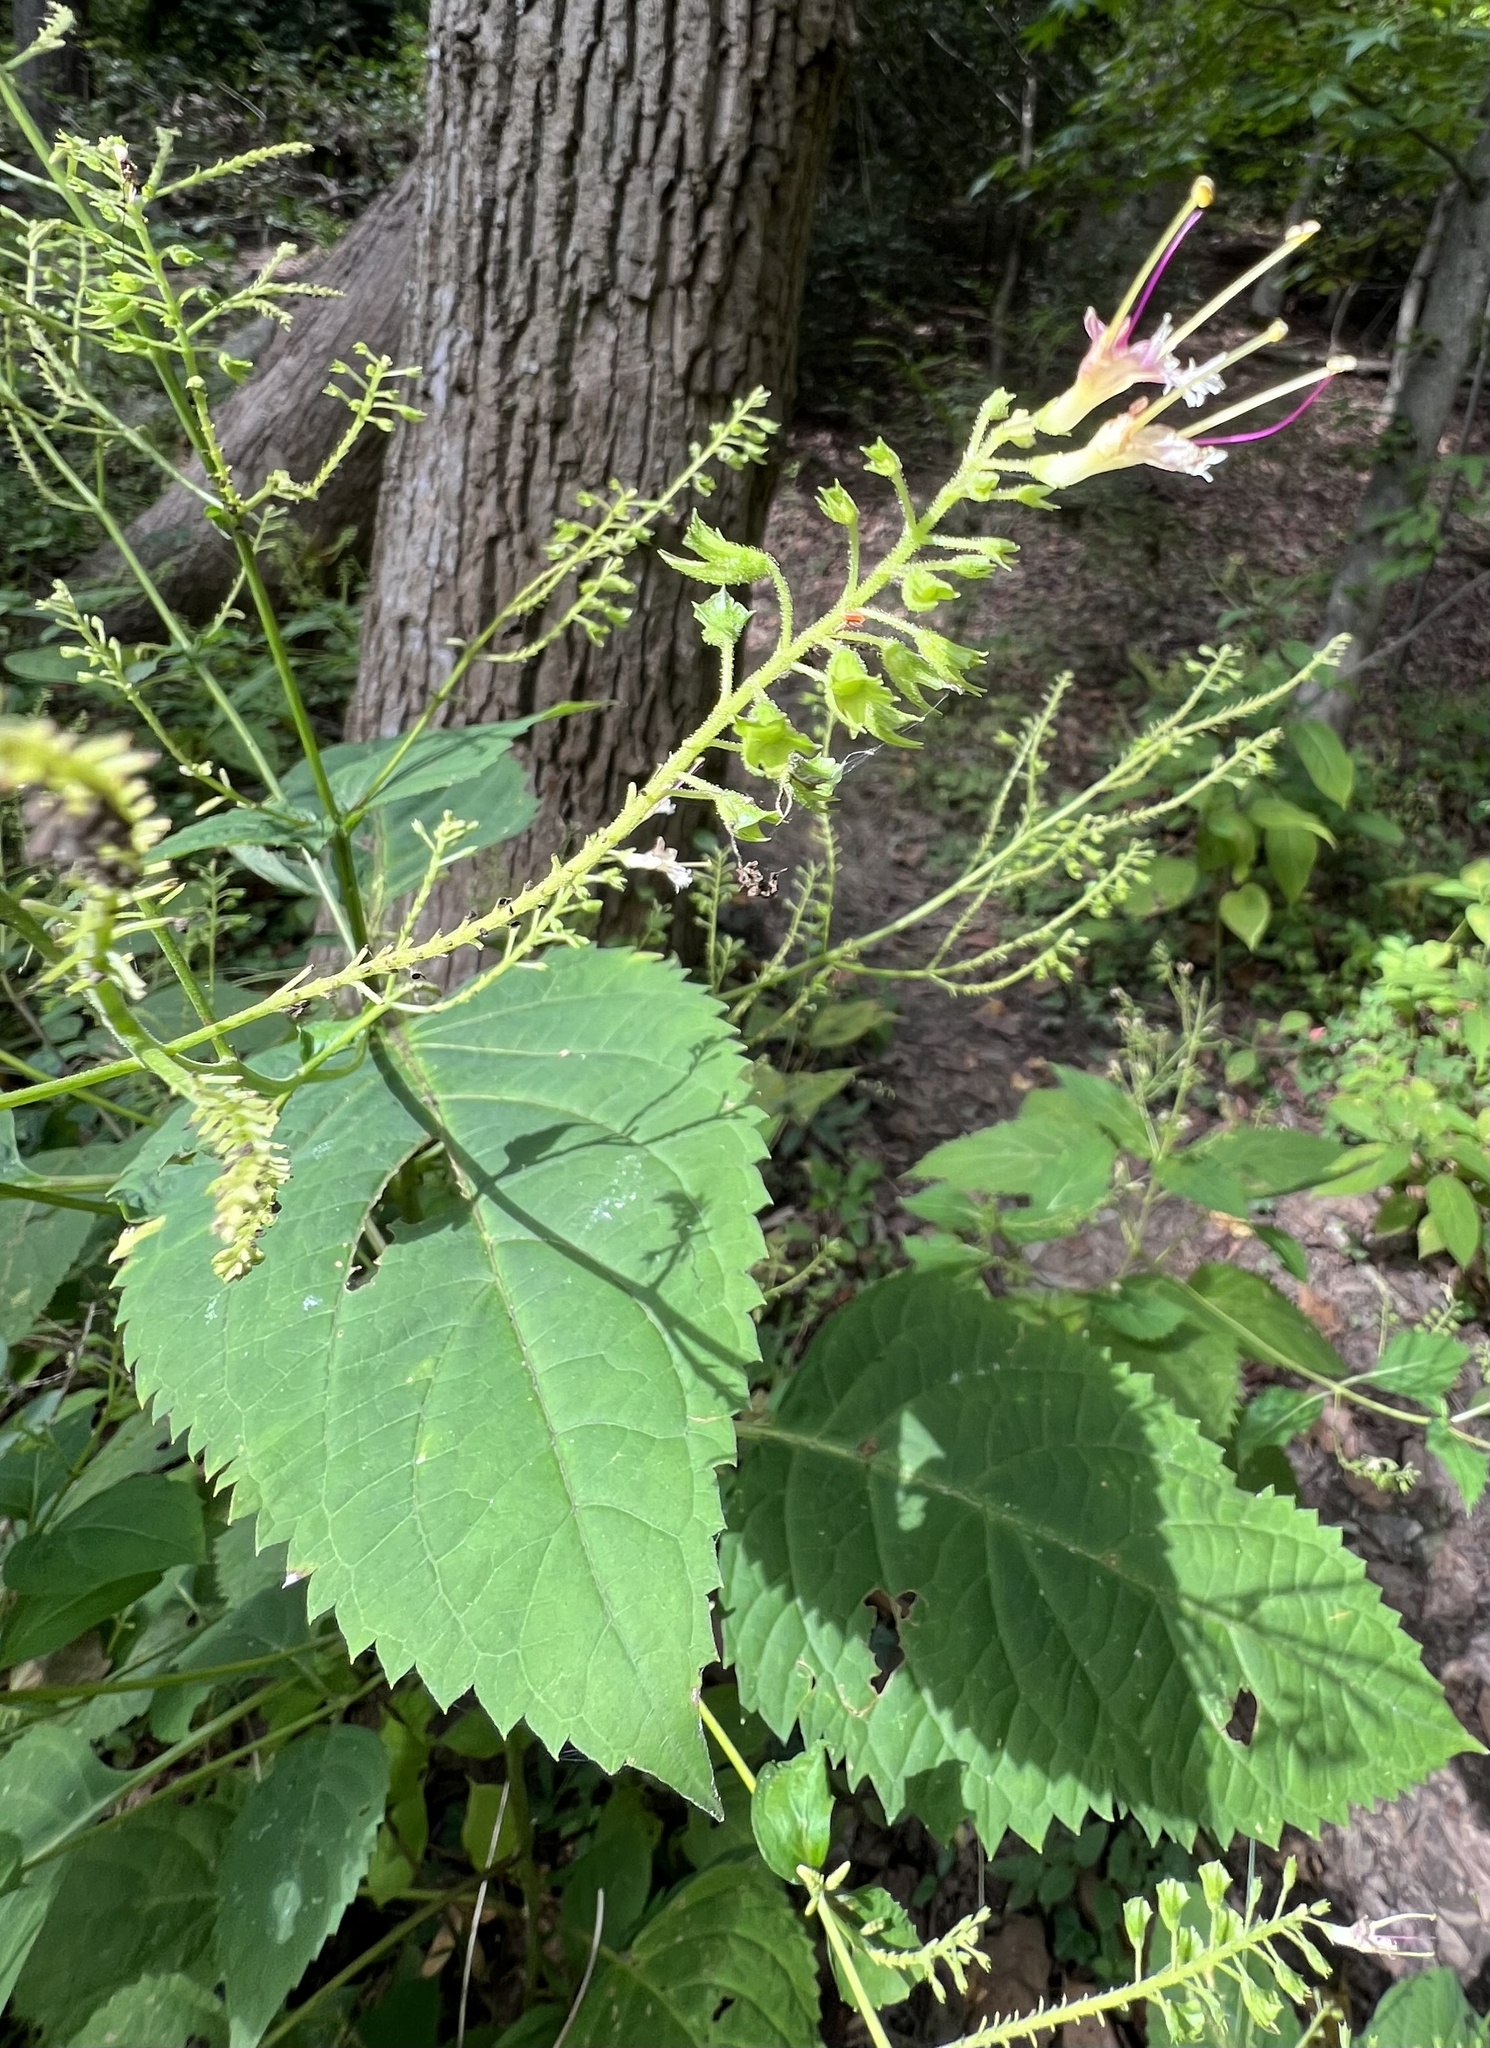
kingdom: Plantae
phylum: Tracheophyta
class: Magnoliopsida
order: Lamiales
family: Lamiaceae
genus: Collinsonia
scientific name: Collinsonia canadensis
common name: Northern horsebalm
